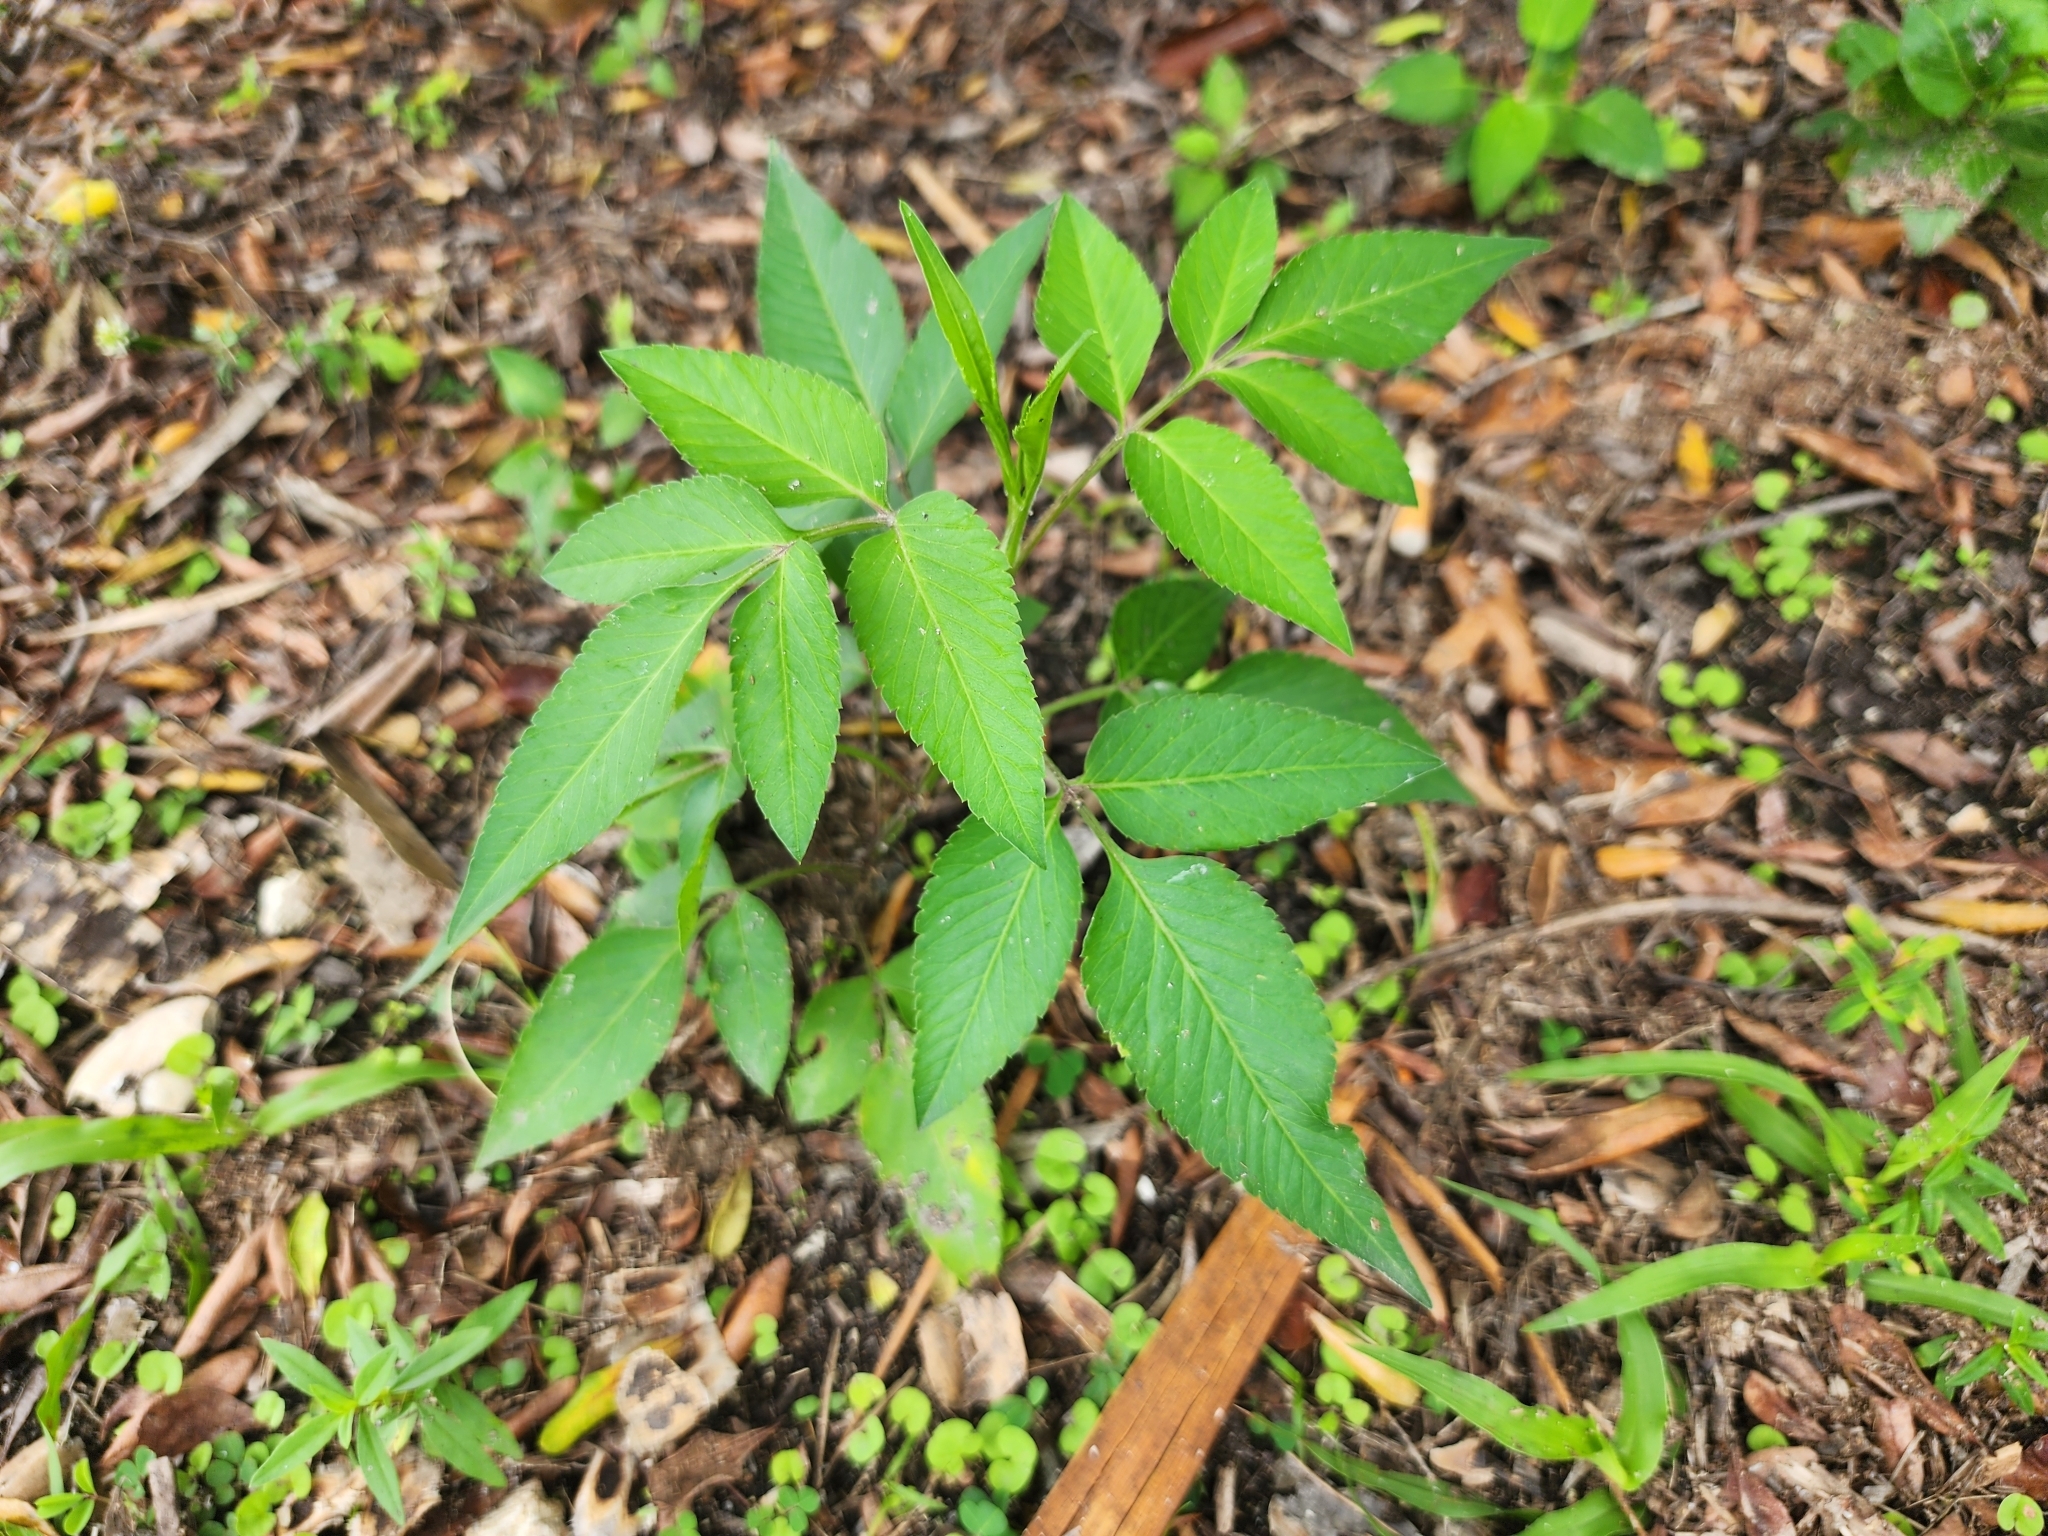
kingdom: Plantae
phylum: Tracheophyta
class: Magnoliopsida
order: Asterales
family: Asteraceae
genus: Bidens
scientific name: Bidens alba
